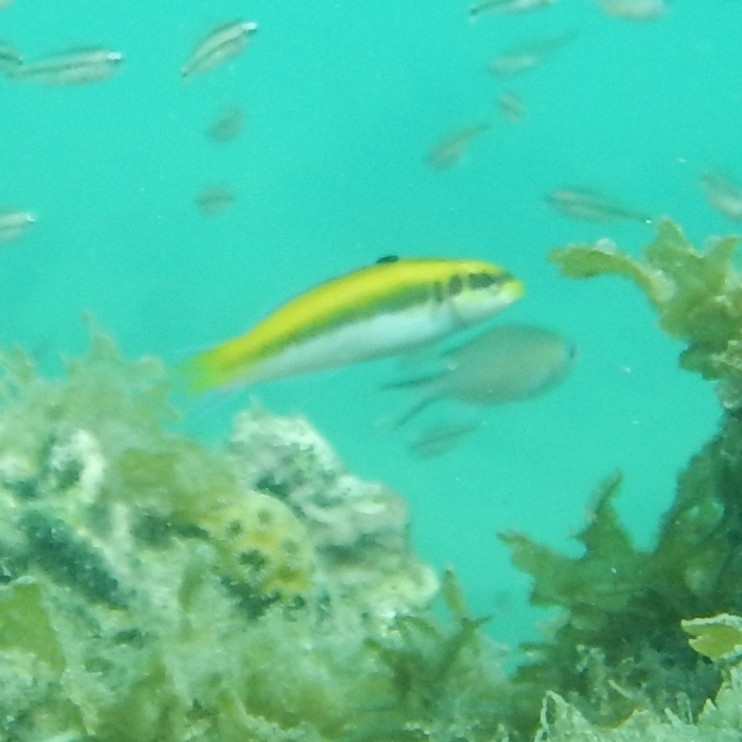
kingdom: Animalia
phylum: Chordata
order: Perciformes
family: Labridae
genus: Thalassoma
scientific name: Thalassoma bifasciatum
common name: Bluehead wrasse
